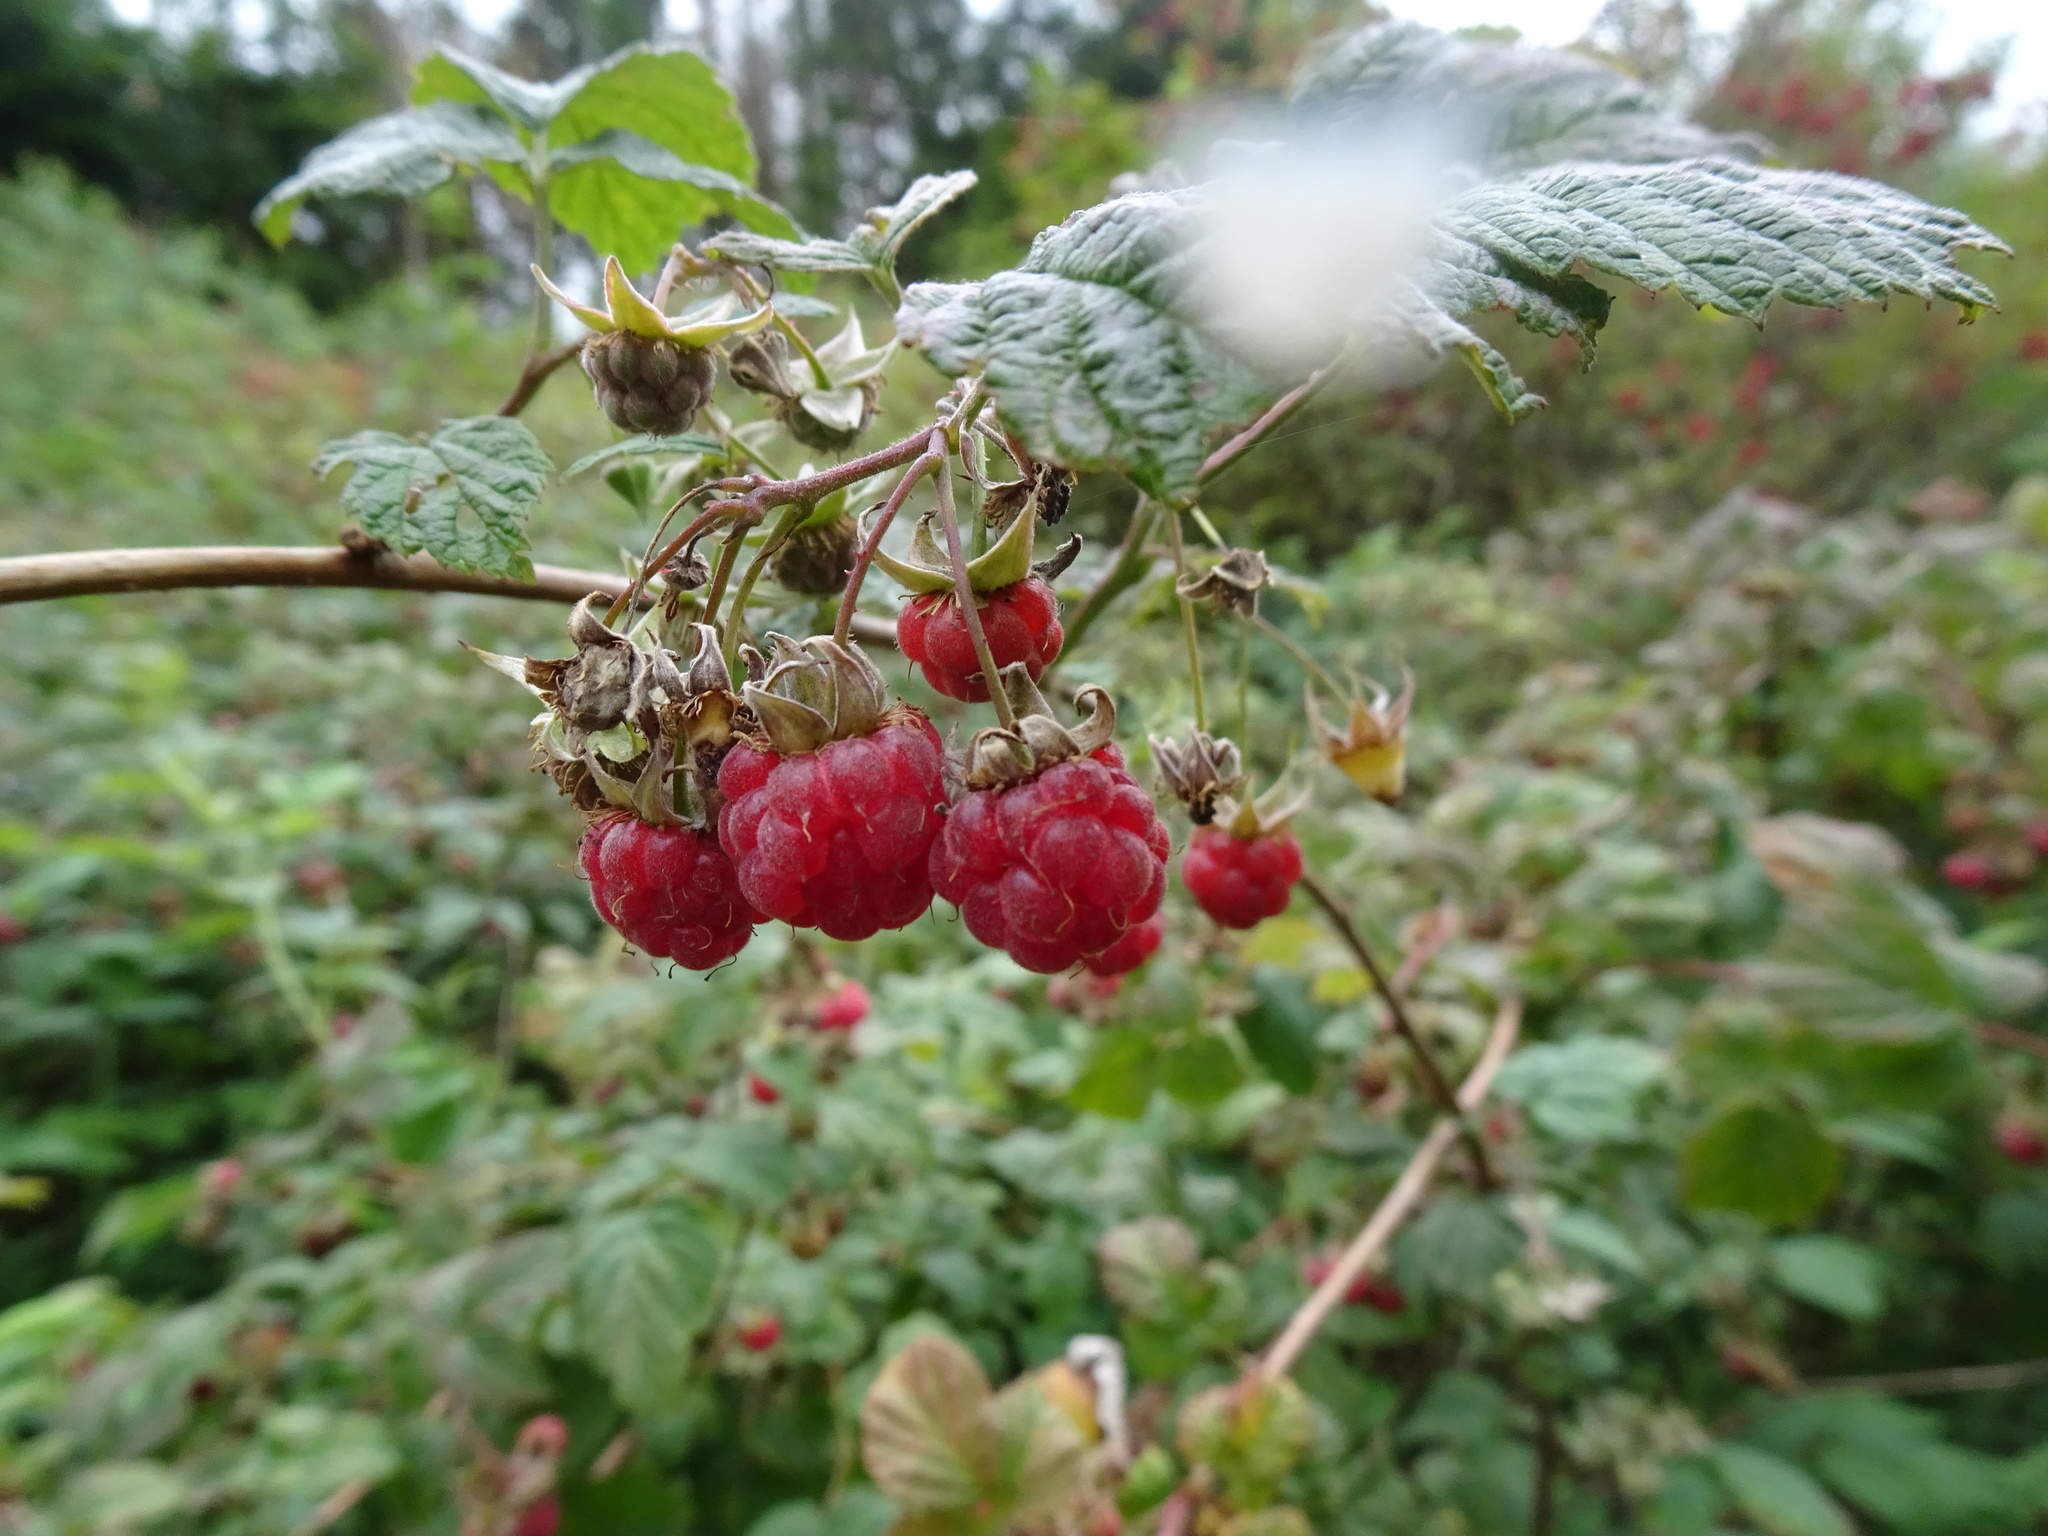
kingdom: Plantae
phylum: Tracheophyta
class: Magnoliopsida
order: Rosales
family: Rosaceae
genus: Rubus
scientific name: Rubus idaeus
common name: Raspberry
